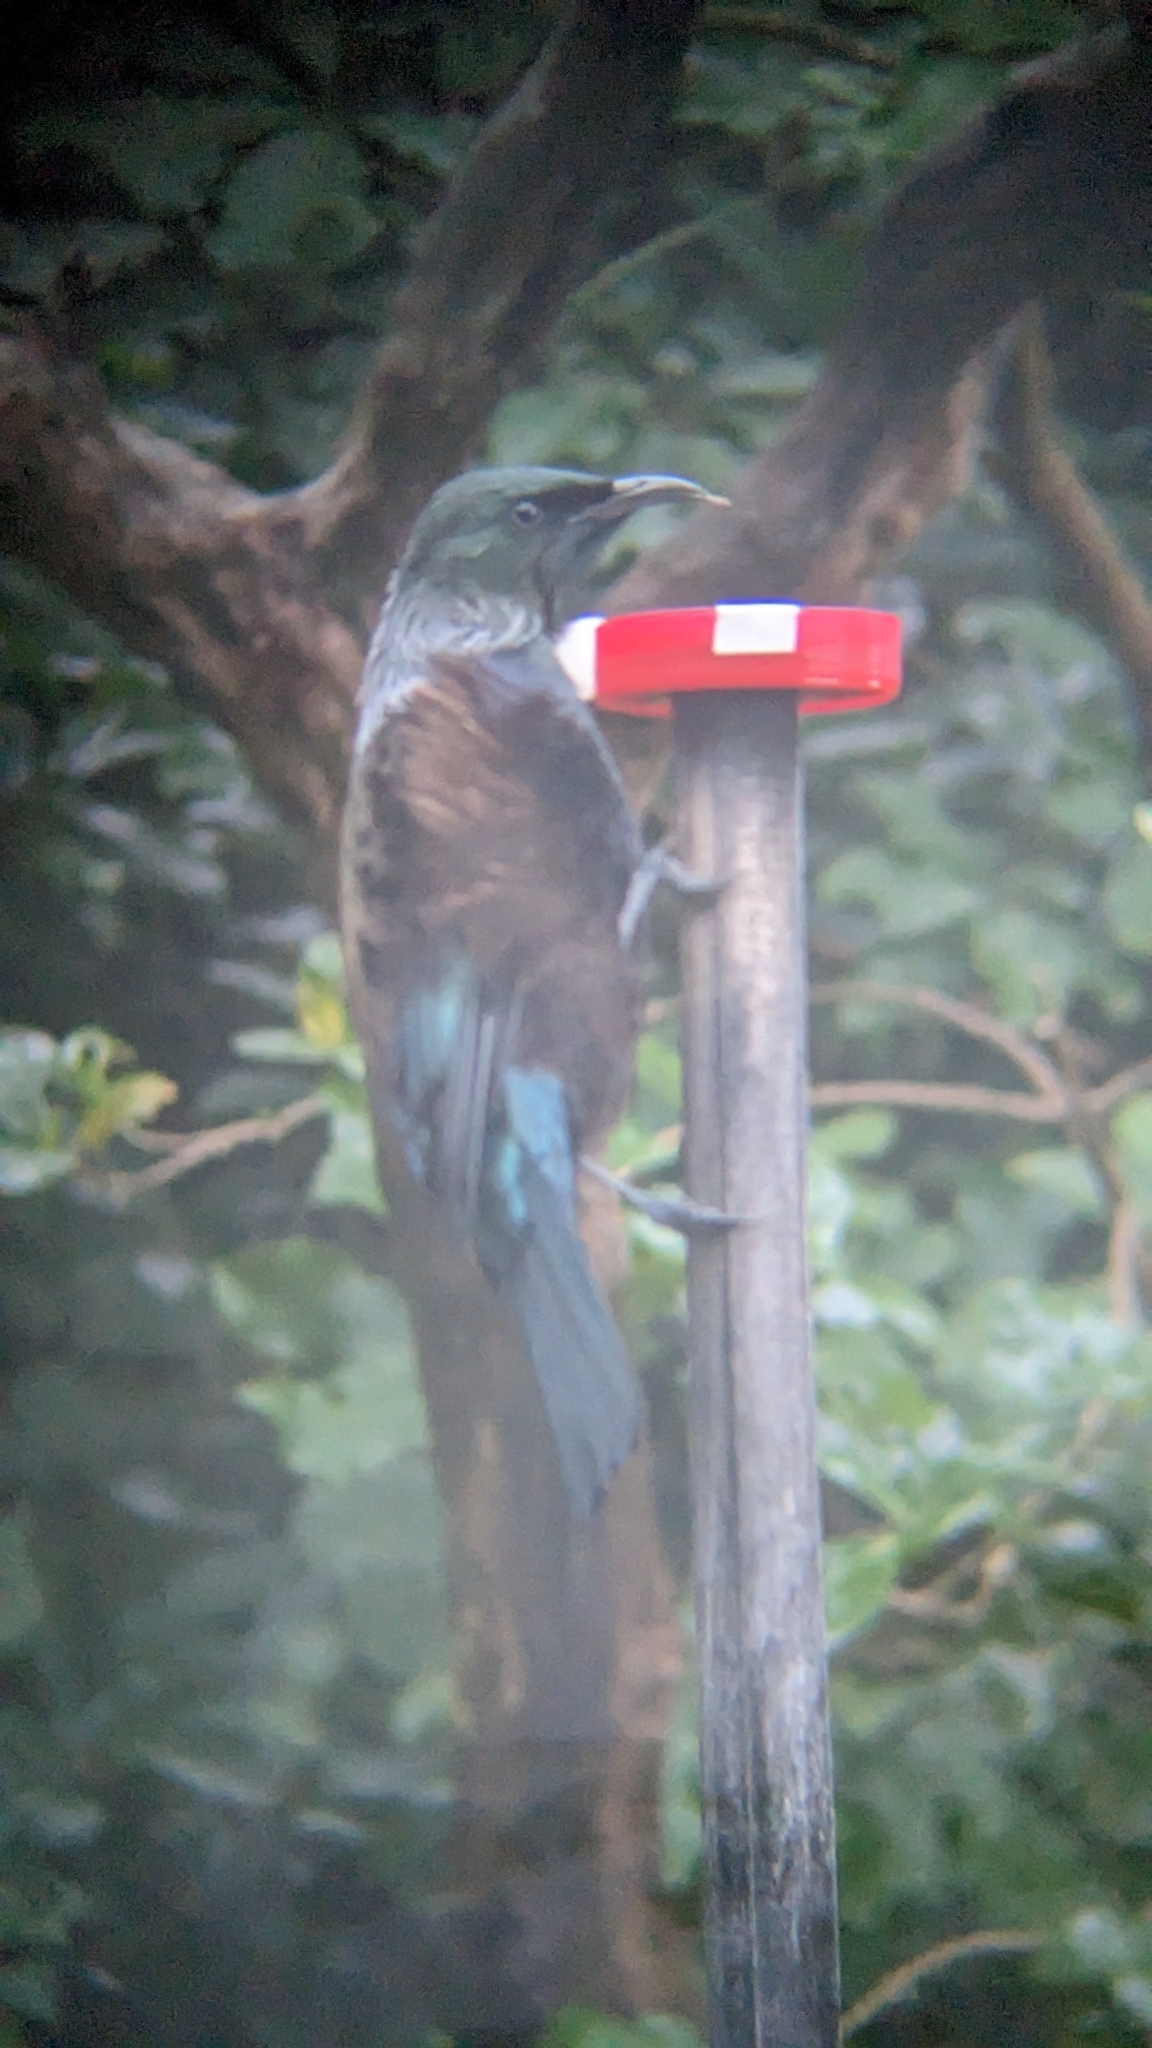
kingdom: Animalia
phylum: Chordata
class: Aves
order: Passeriformes
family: Meliphagidae
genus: Prosthemadera
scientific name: Prosthemadera novaeseelandiae
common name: Tui
